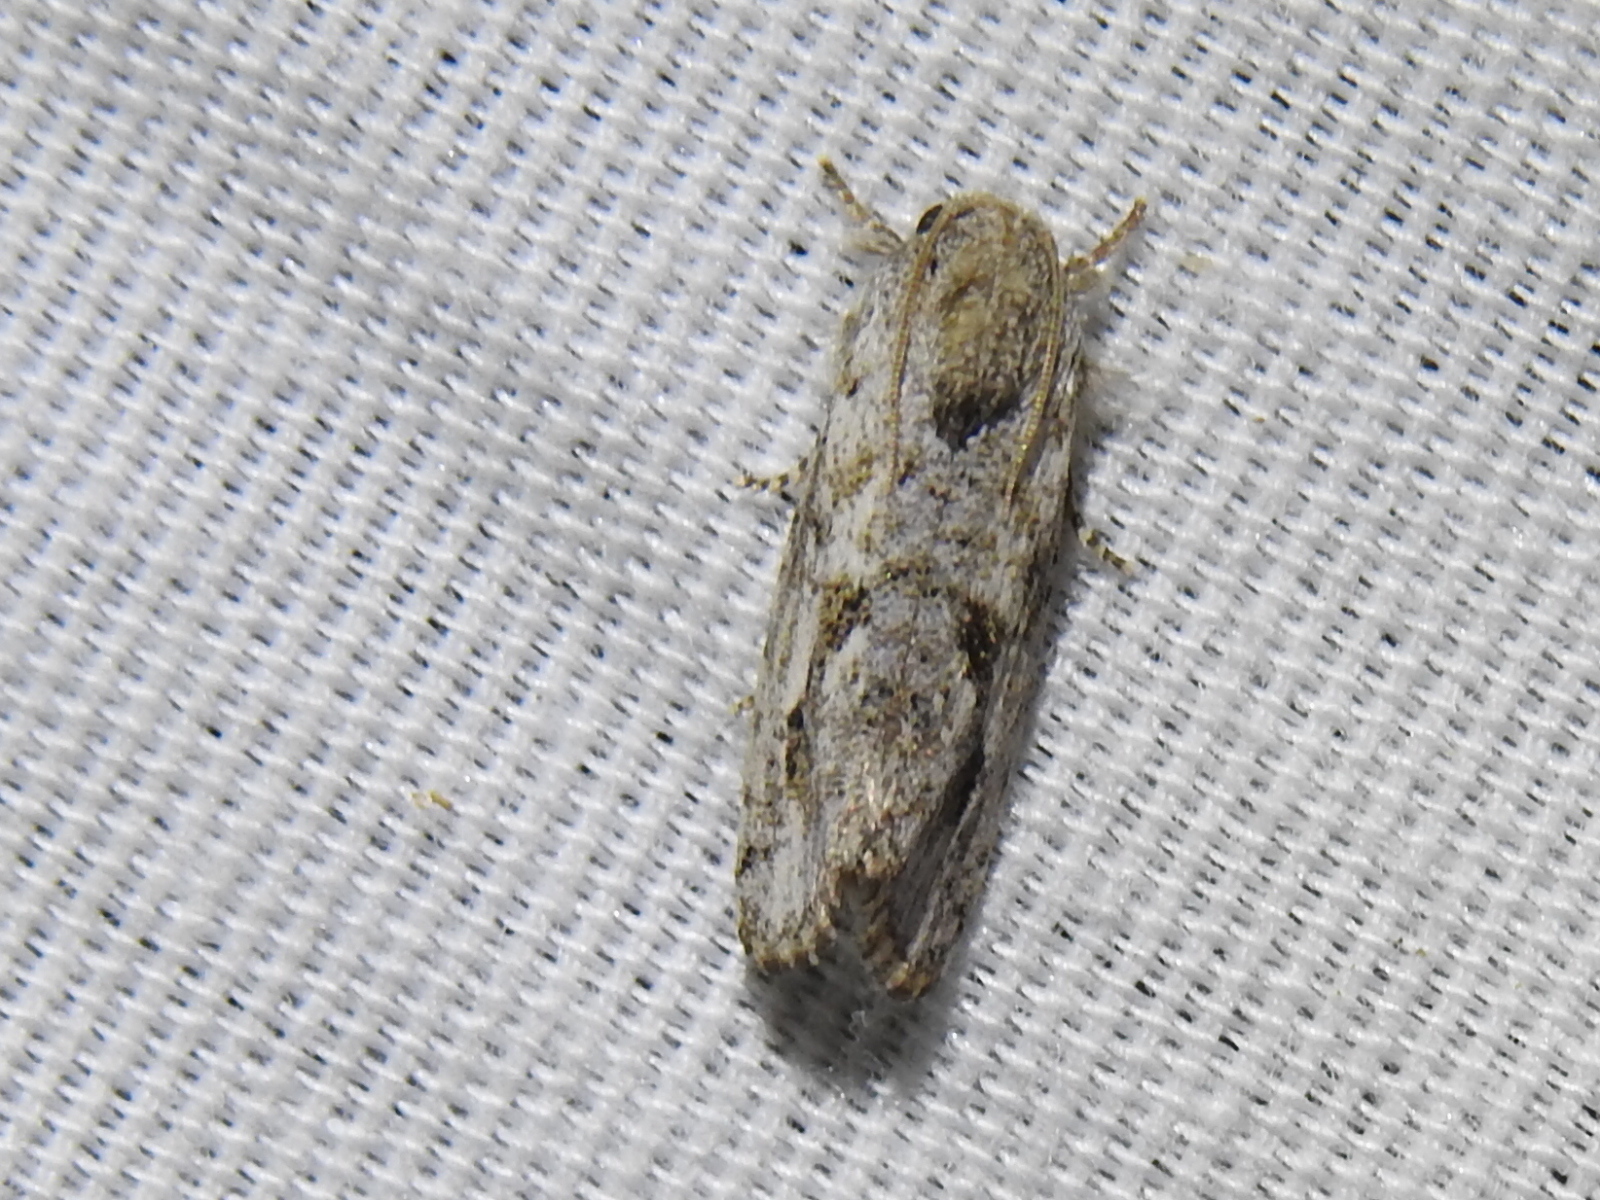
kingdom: Animalia
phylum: Arthropoda
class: Insecta
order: Lepidoptera
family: Tineidae
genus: Acrolophus
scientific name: Acrolophus griseus
